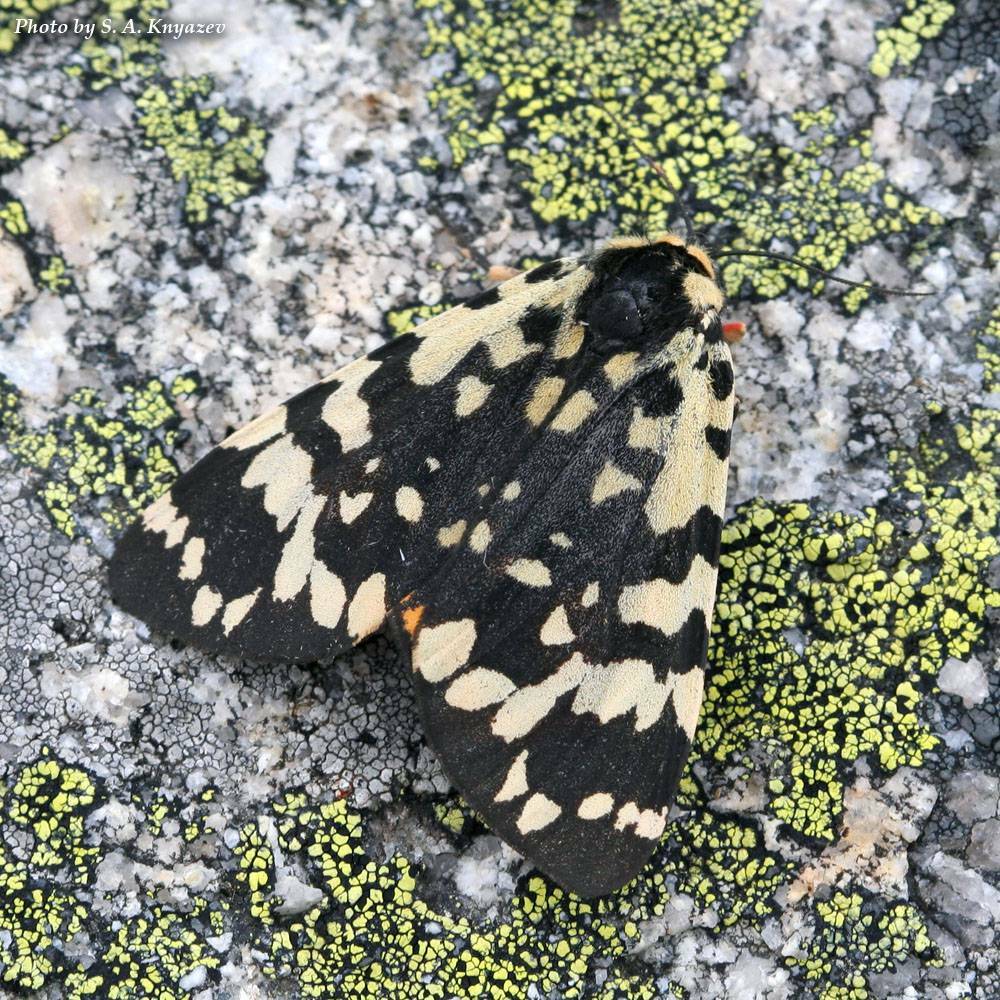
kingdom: Animalia
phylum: Arthropoda
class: Insecta
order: Lepidoptera
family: Erebidae
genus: Acerbia
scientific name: Acerbia alpina
